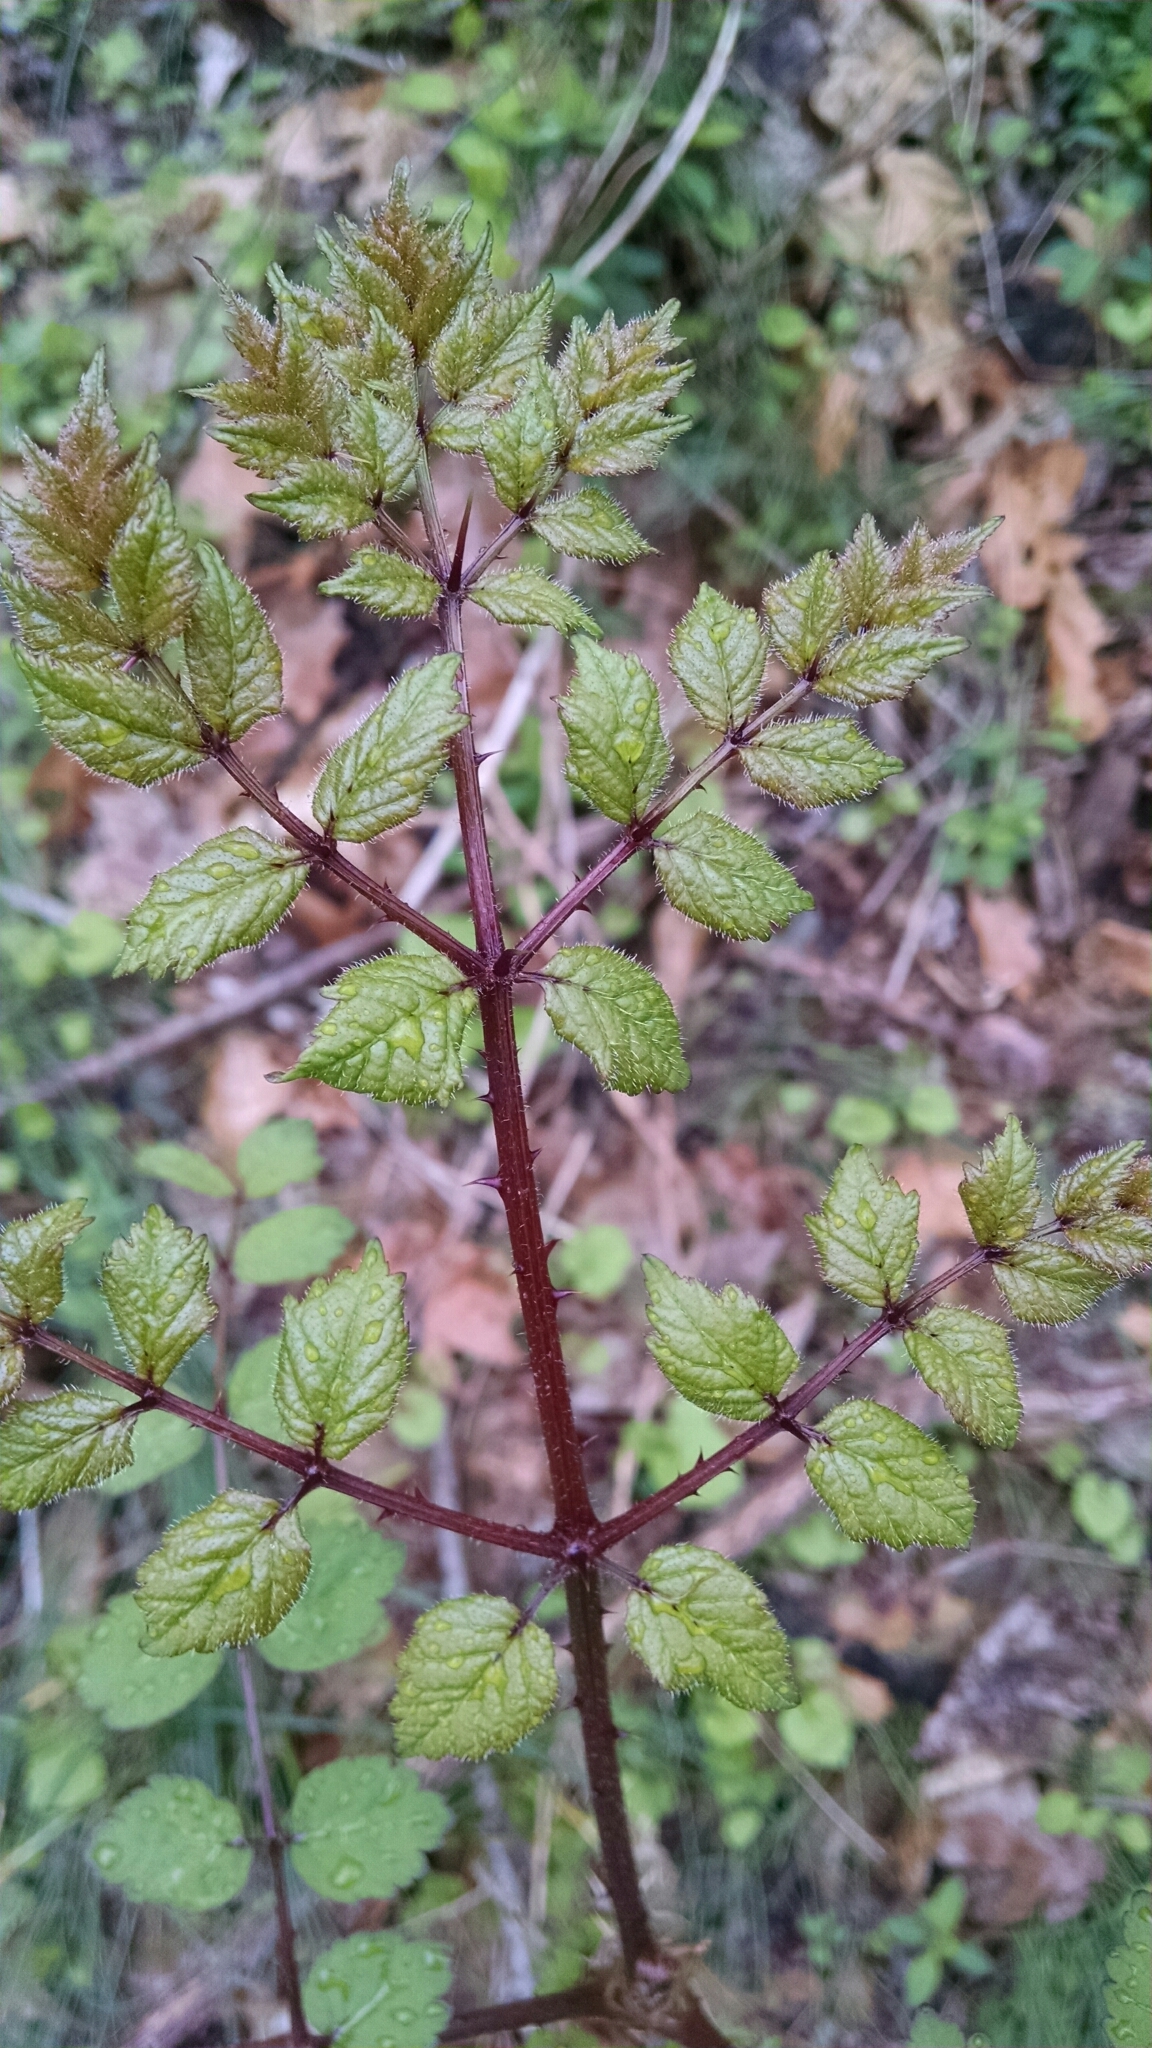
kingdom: Plantae
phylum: Tracheophyta
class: Magnoliopsida
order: Apiales
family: Araliaceae
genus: Aralia
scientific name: Aralia elata
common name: Japanese angelica-tree
